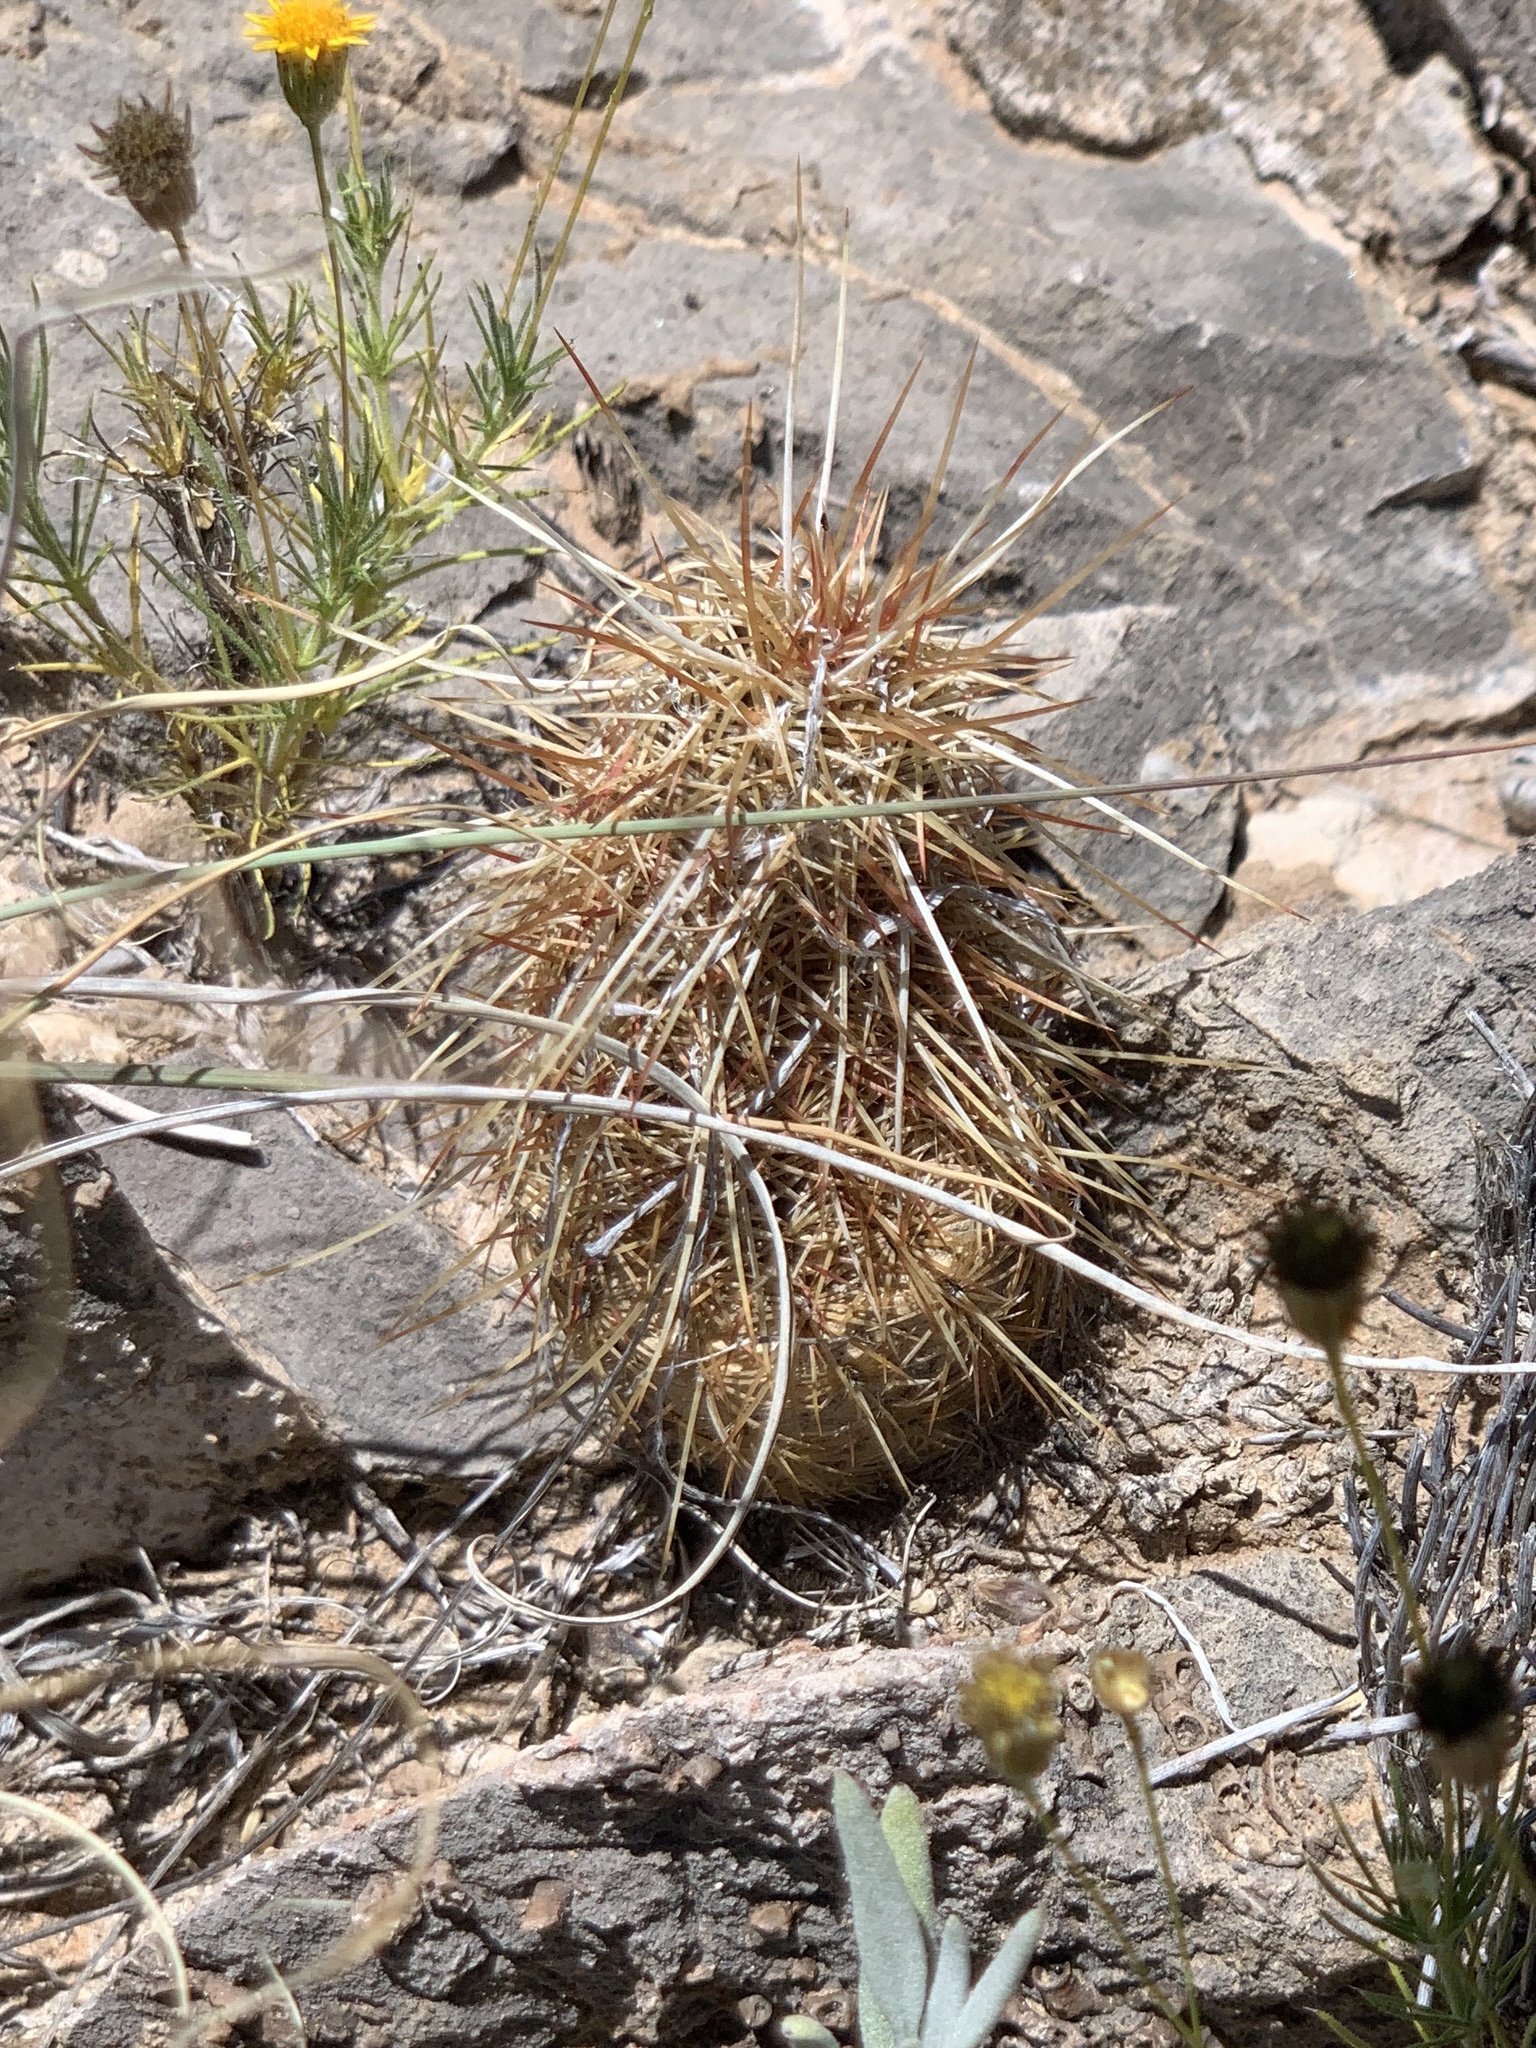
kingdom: Plantae
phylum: Tracheophyta
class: Magnoliopsida
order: Caryophyllales
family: Cactaceae
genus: Echinocereus
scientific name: Echinocereus viridiflorus
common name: Nylon hedgehog cactus
